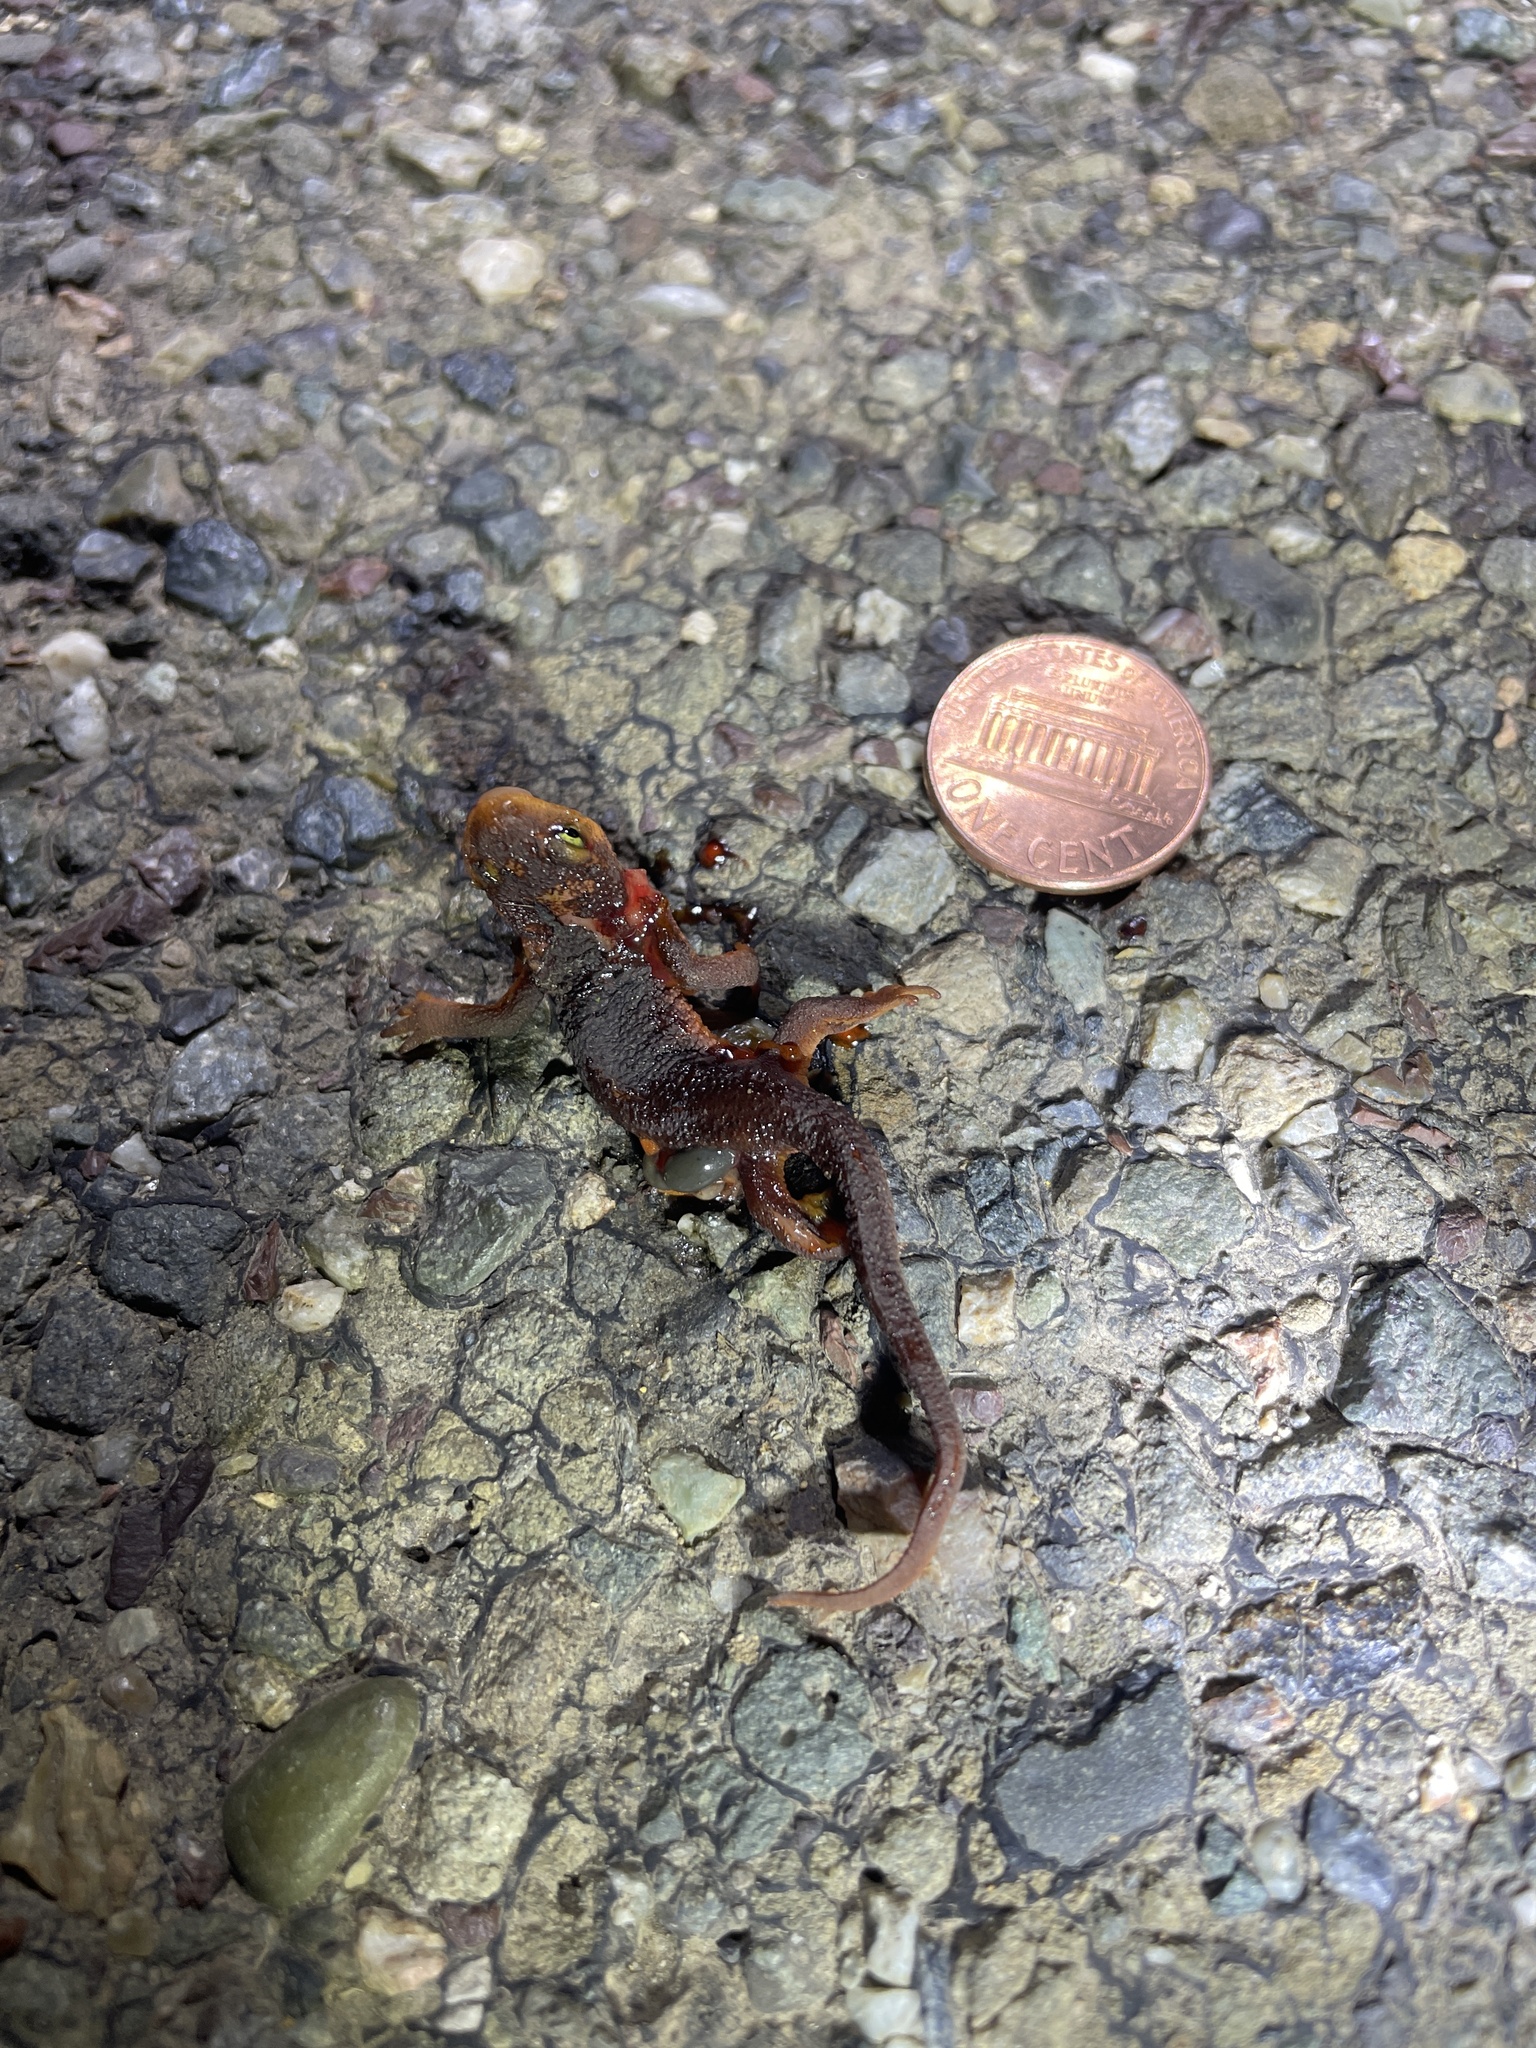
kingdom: Animalia
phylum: Chordata
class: Amphibia
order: Caudata
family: Salamandridae
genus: Taricha
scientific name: Taricha
